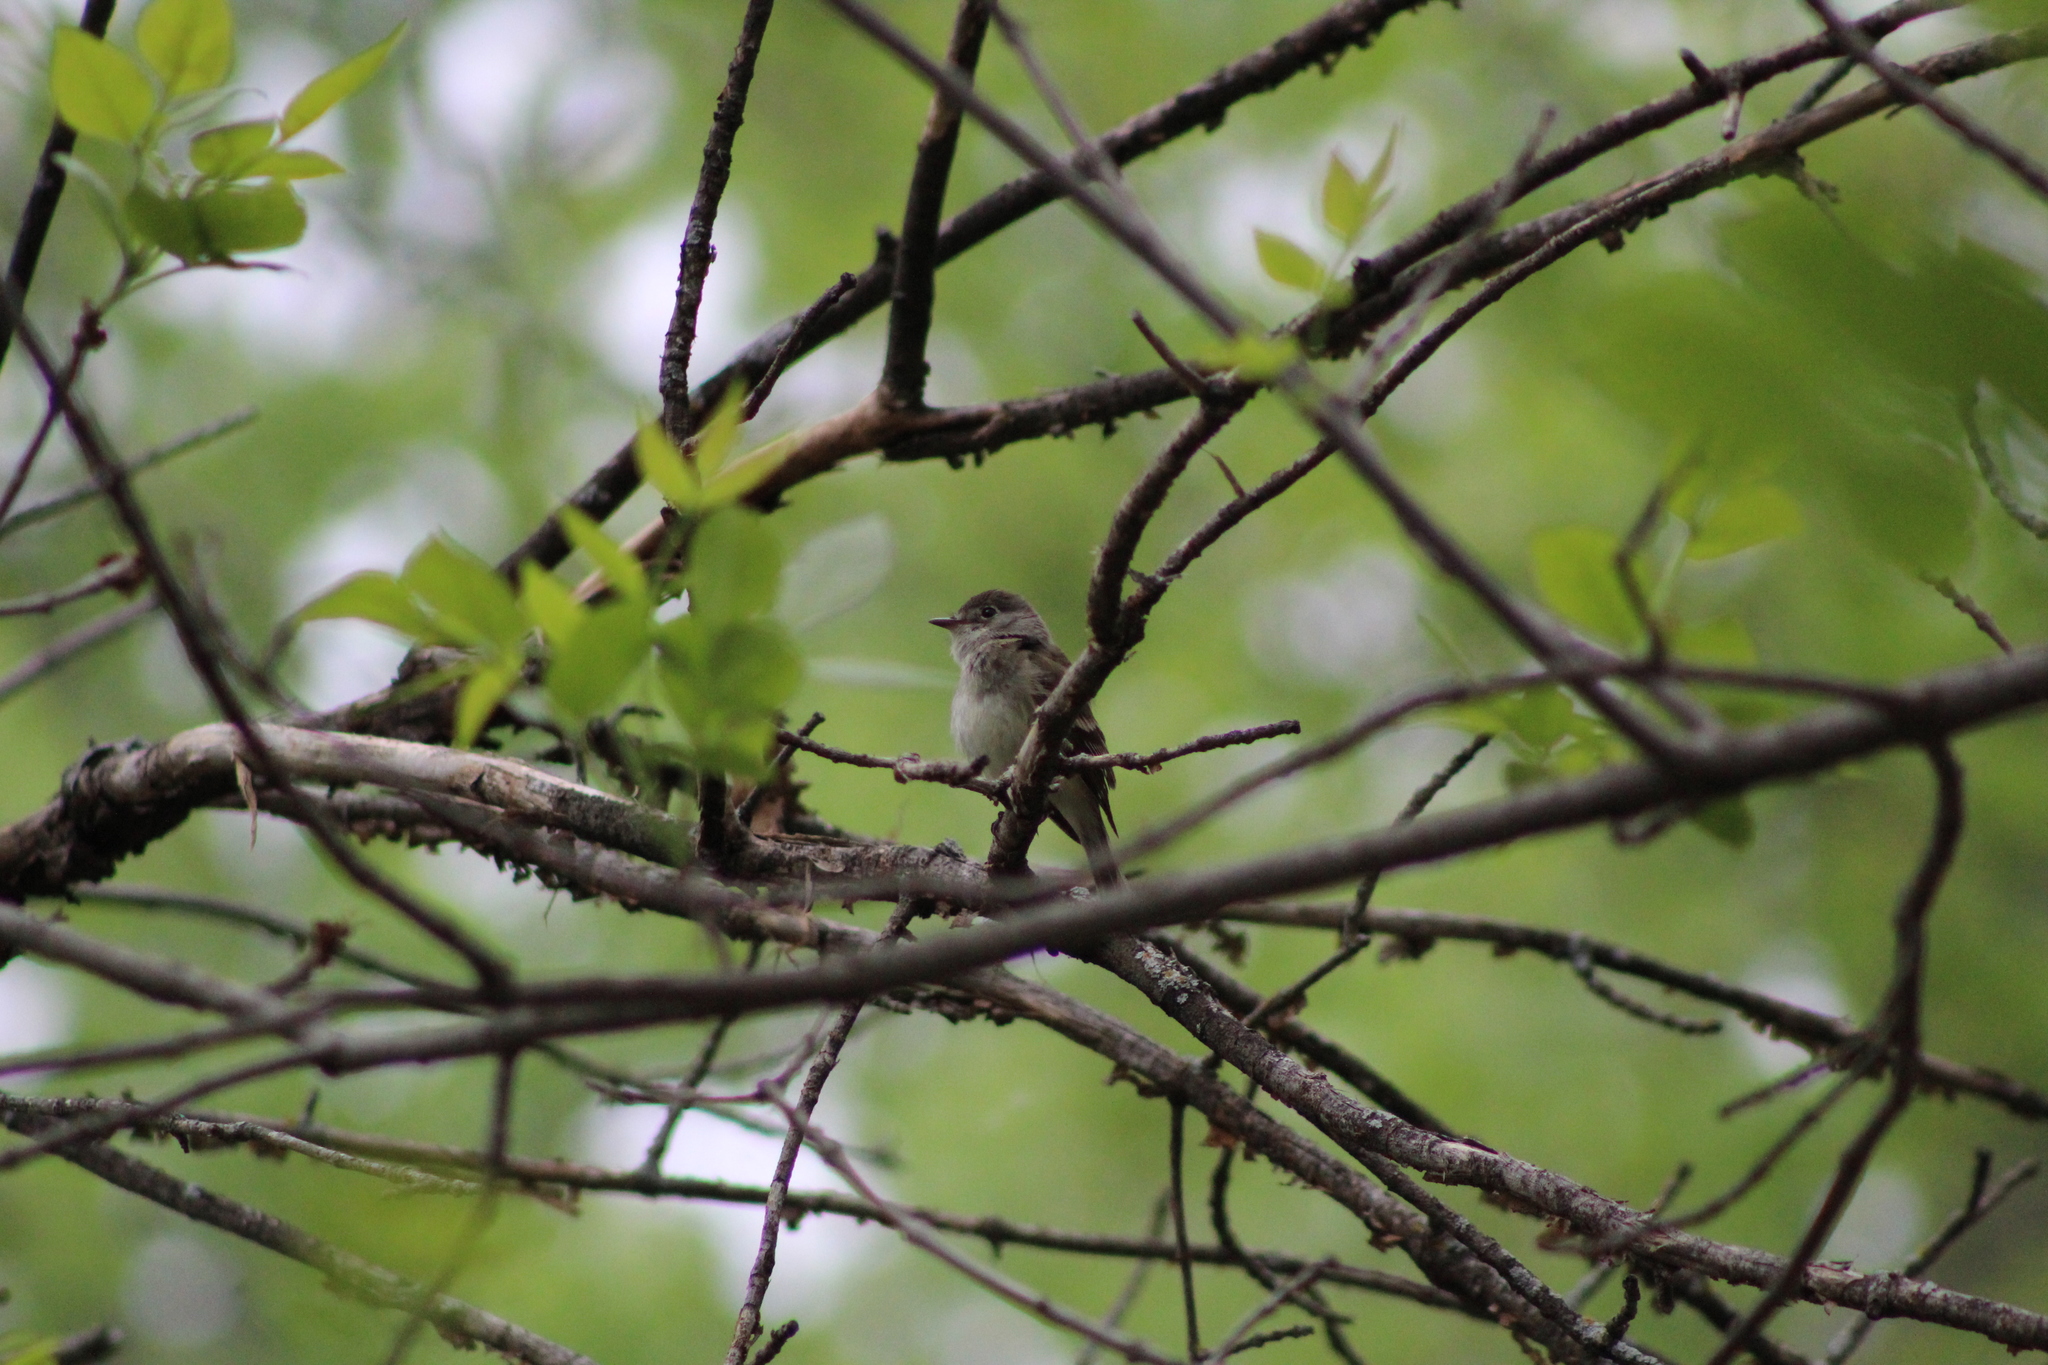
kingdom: Animalia
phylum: Chordata
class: Aves
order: Passeriformes
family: Tyrannidae
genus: Empidonax
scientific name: Empidonax minimus
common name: Least flycatcher
